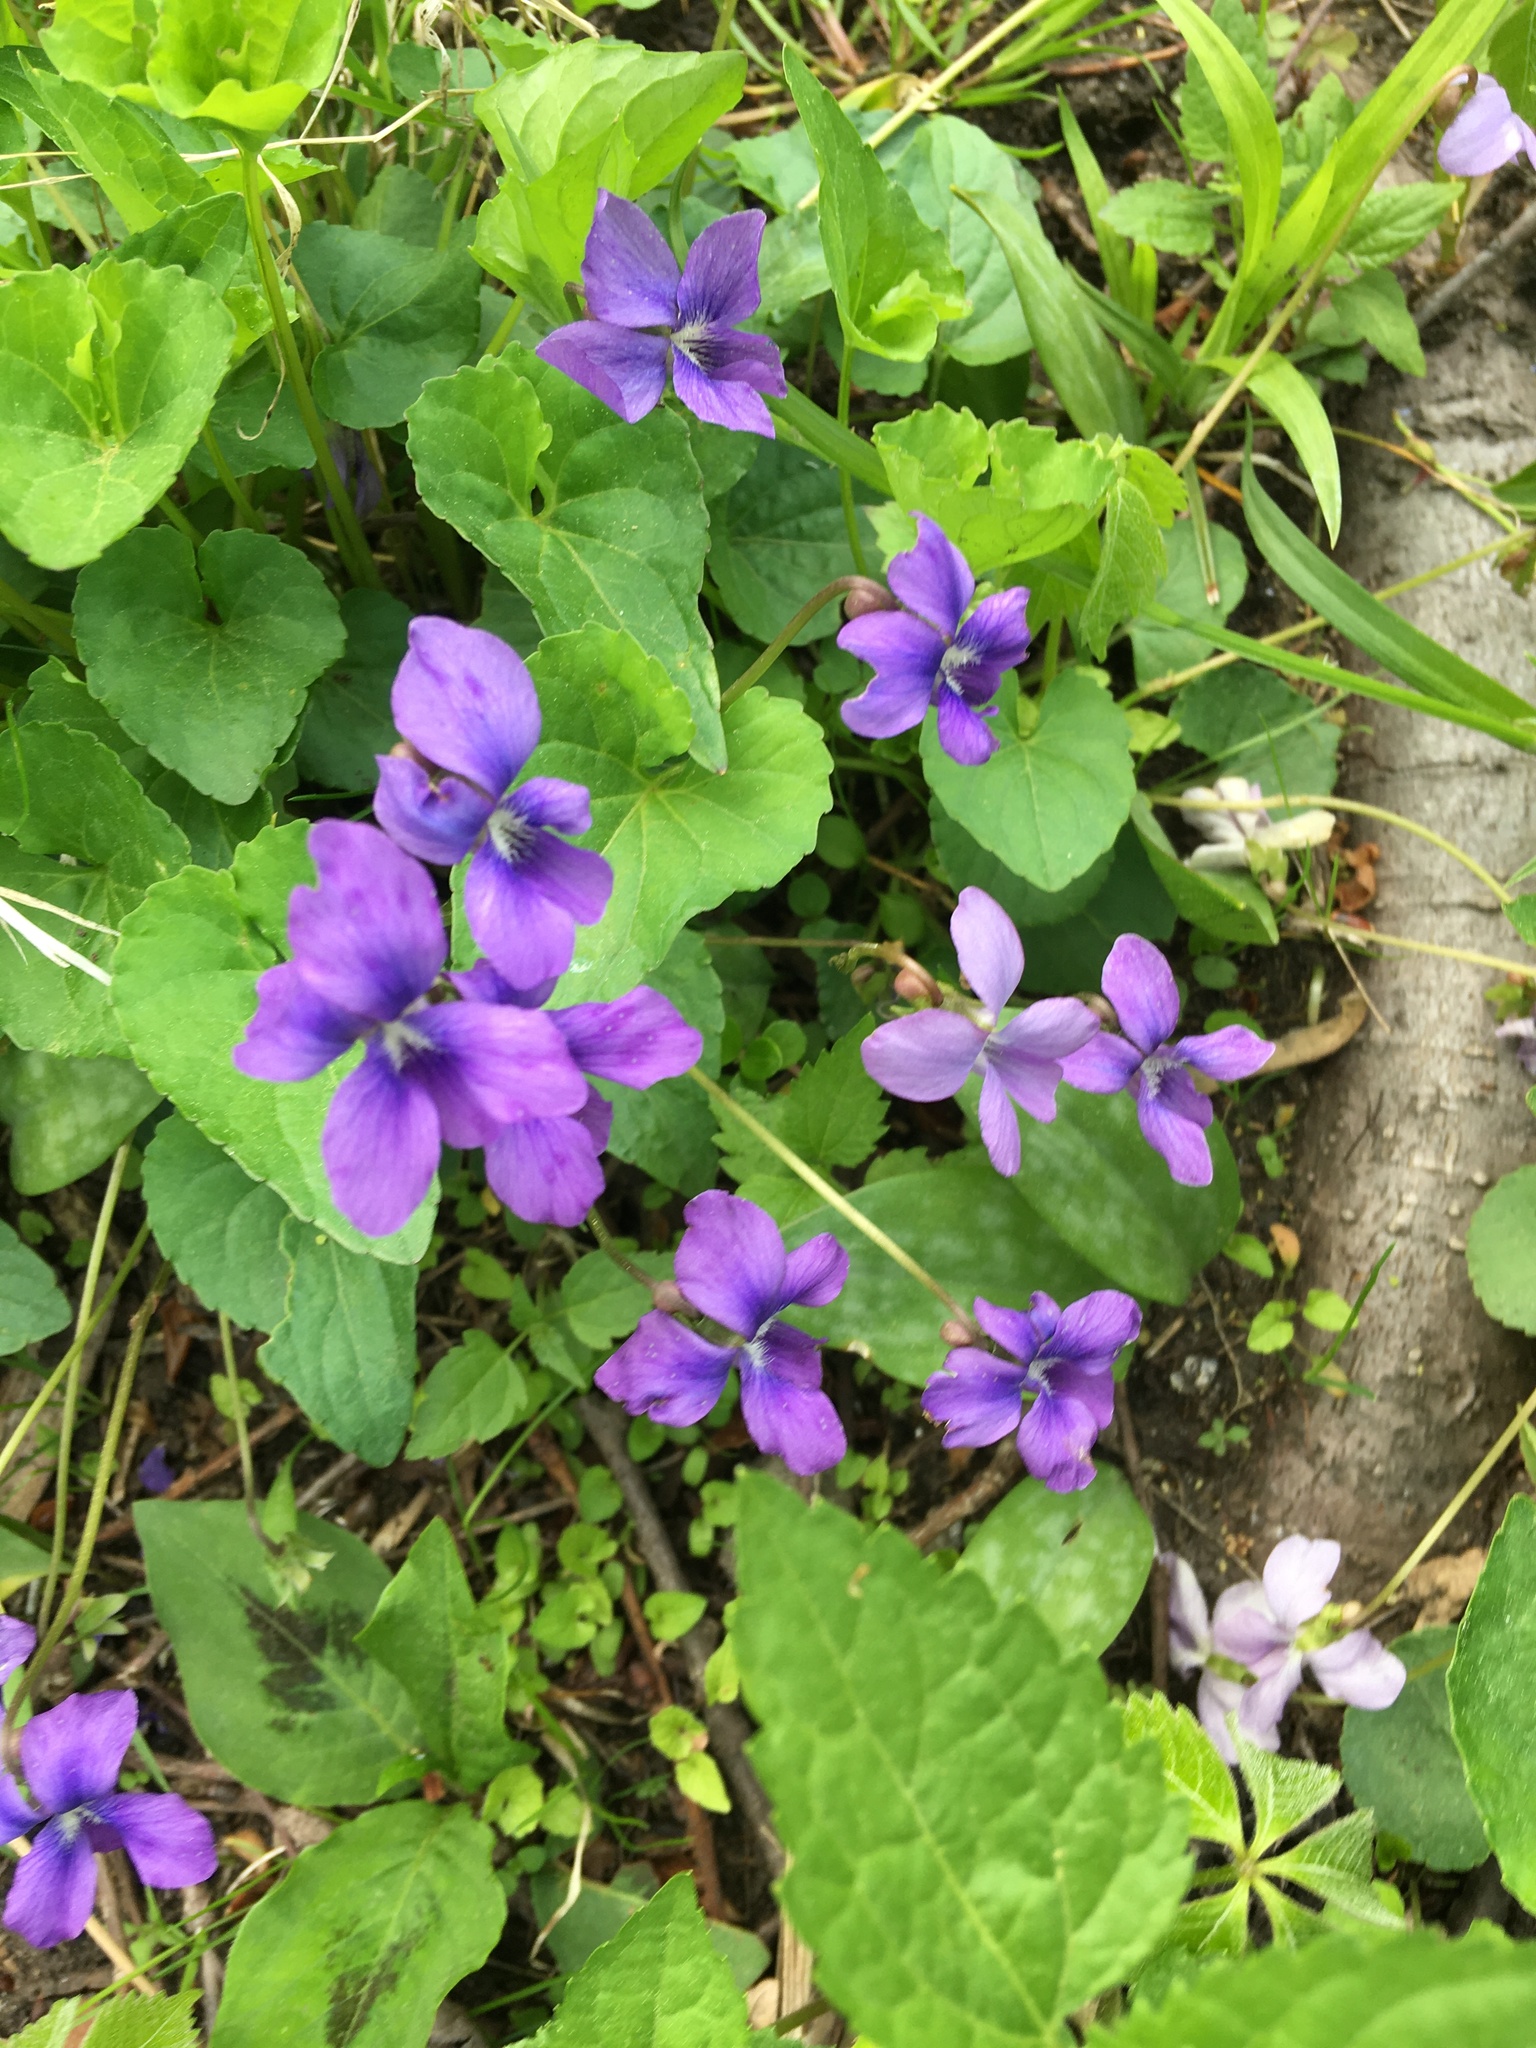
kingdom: Plantae
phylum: Tracheophyta
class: Magnoliopsida
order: Malpighiales
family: Violaceae
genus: Viola
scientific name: Viola sororia
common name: Dooryard violet
